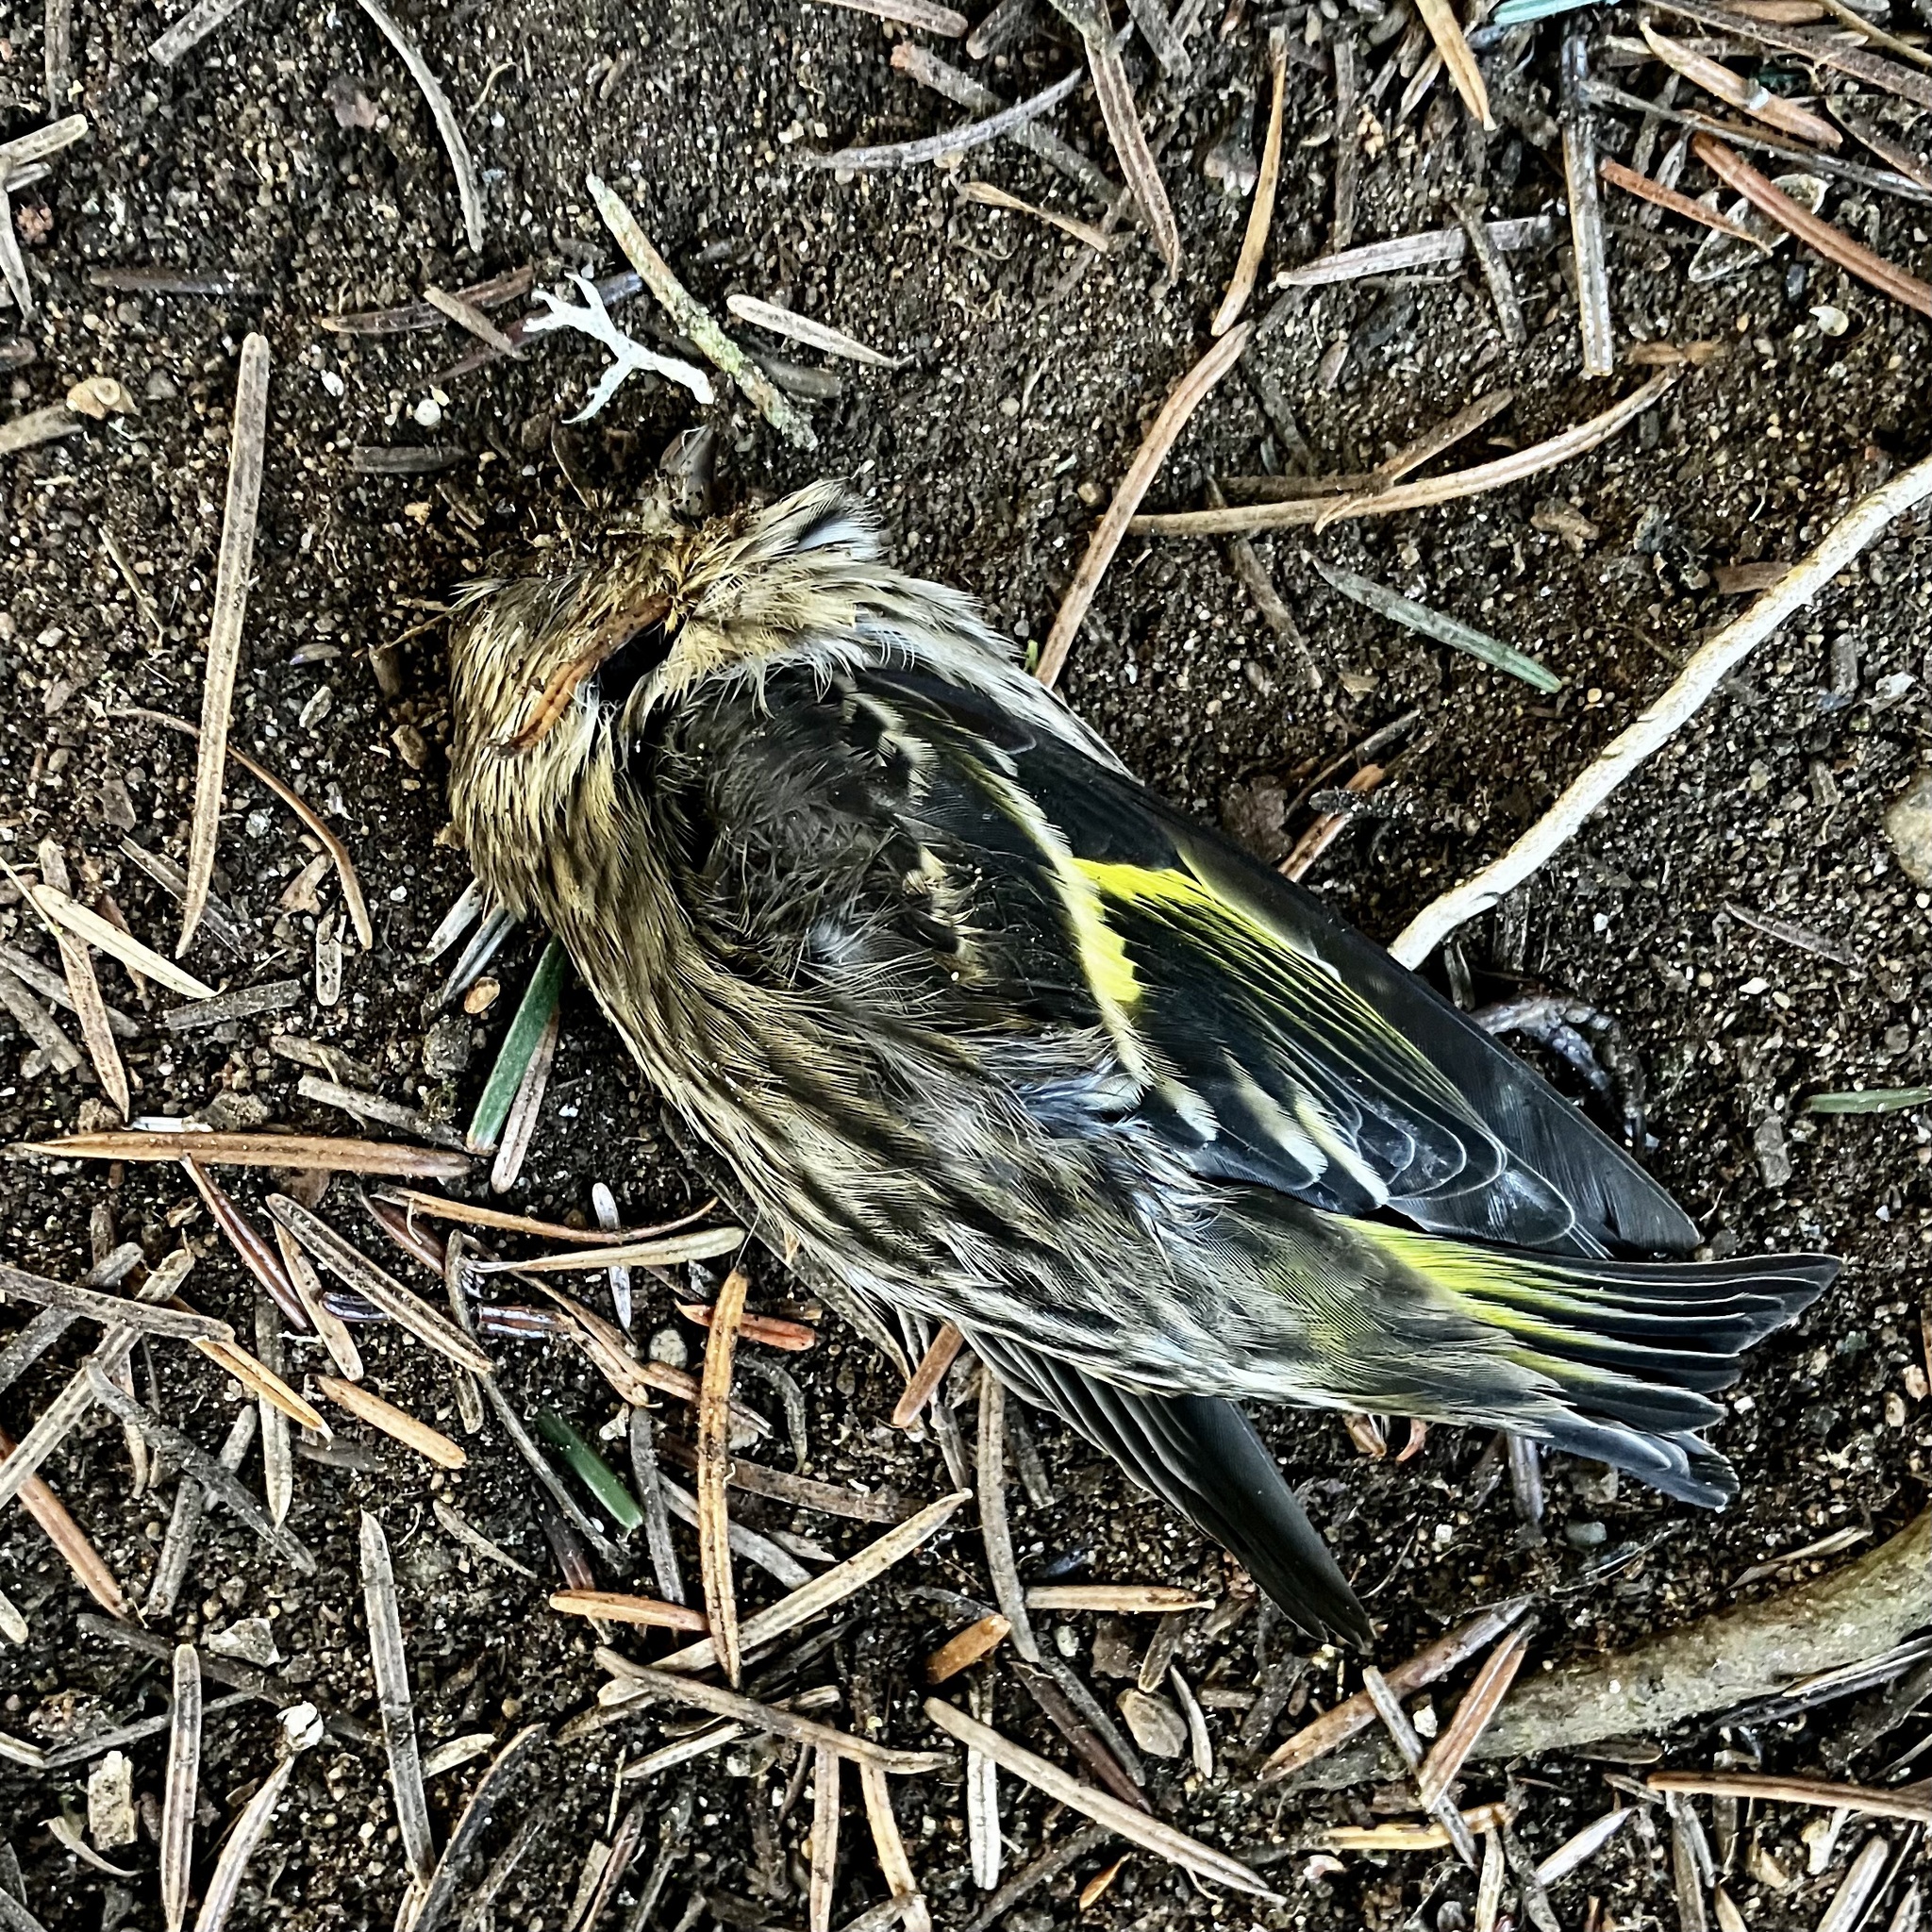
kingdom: Animalia
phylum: Chordata
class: Aves
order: Passeriformes
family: Fringillidae
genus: Spinus
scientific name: Spinus pinus
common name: Pine siskin
